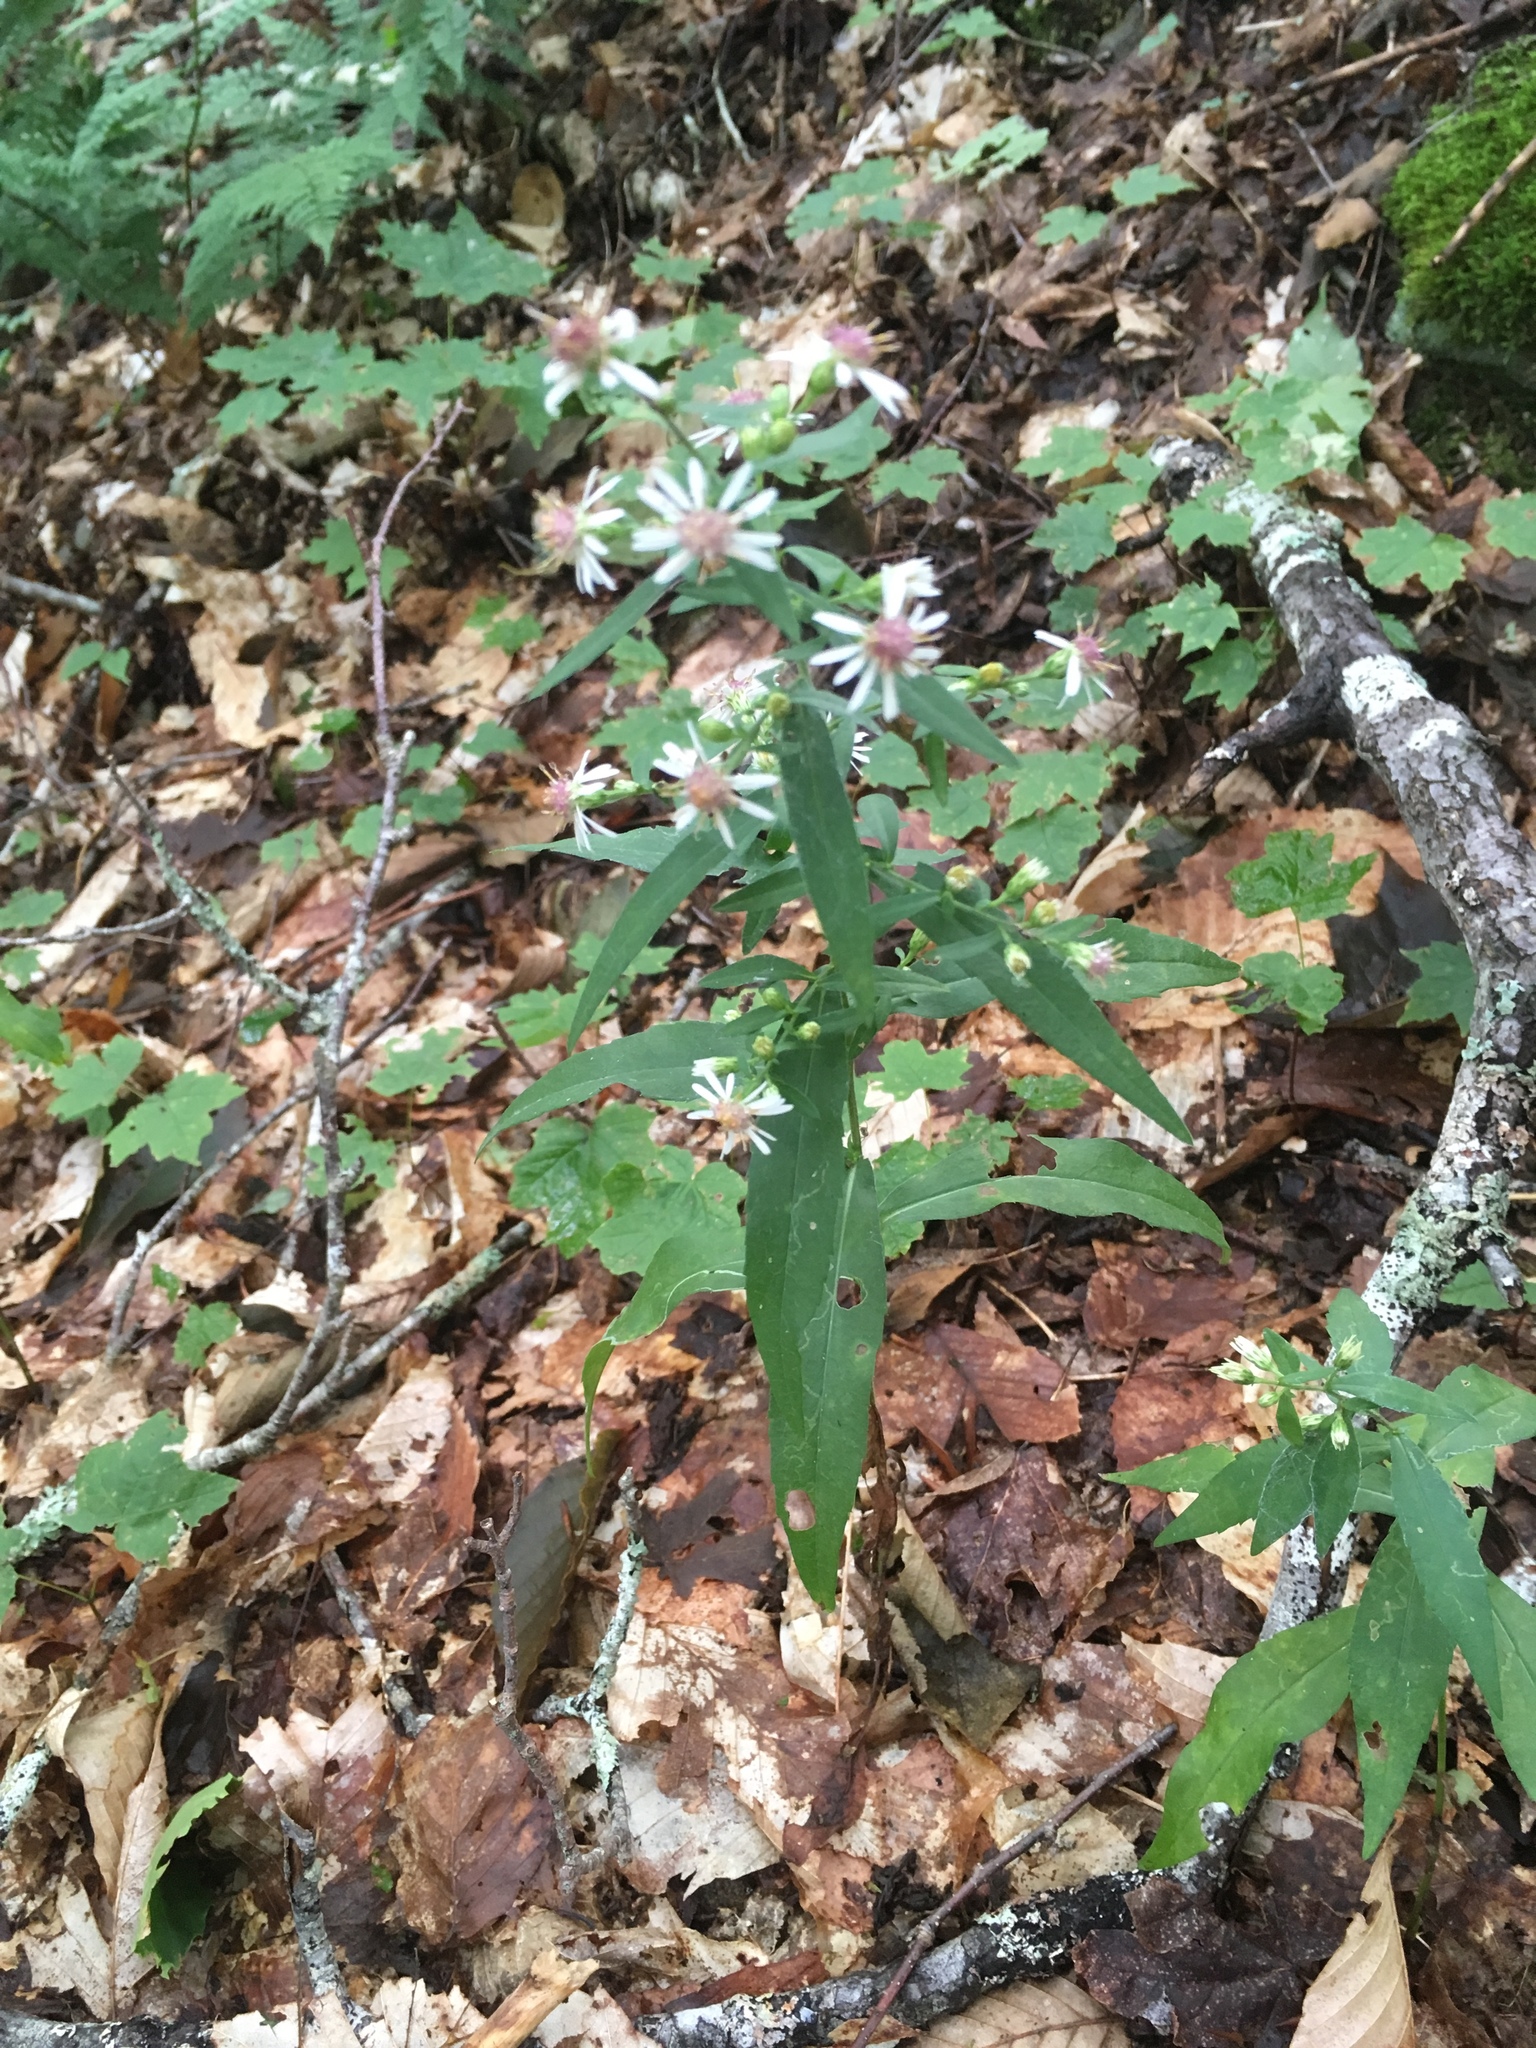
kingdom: Plantae
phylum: Tracheophyta
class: Magnoliopsida
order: Asterales
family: Asteraceae
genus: Symphyotrichum
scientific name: Symphyotrichum lateriflorum
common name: Calico aster
